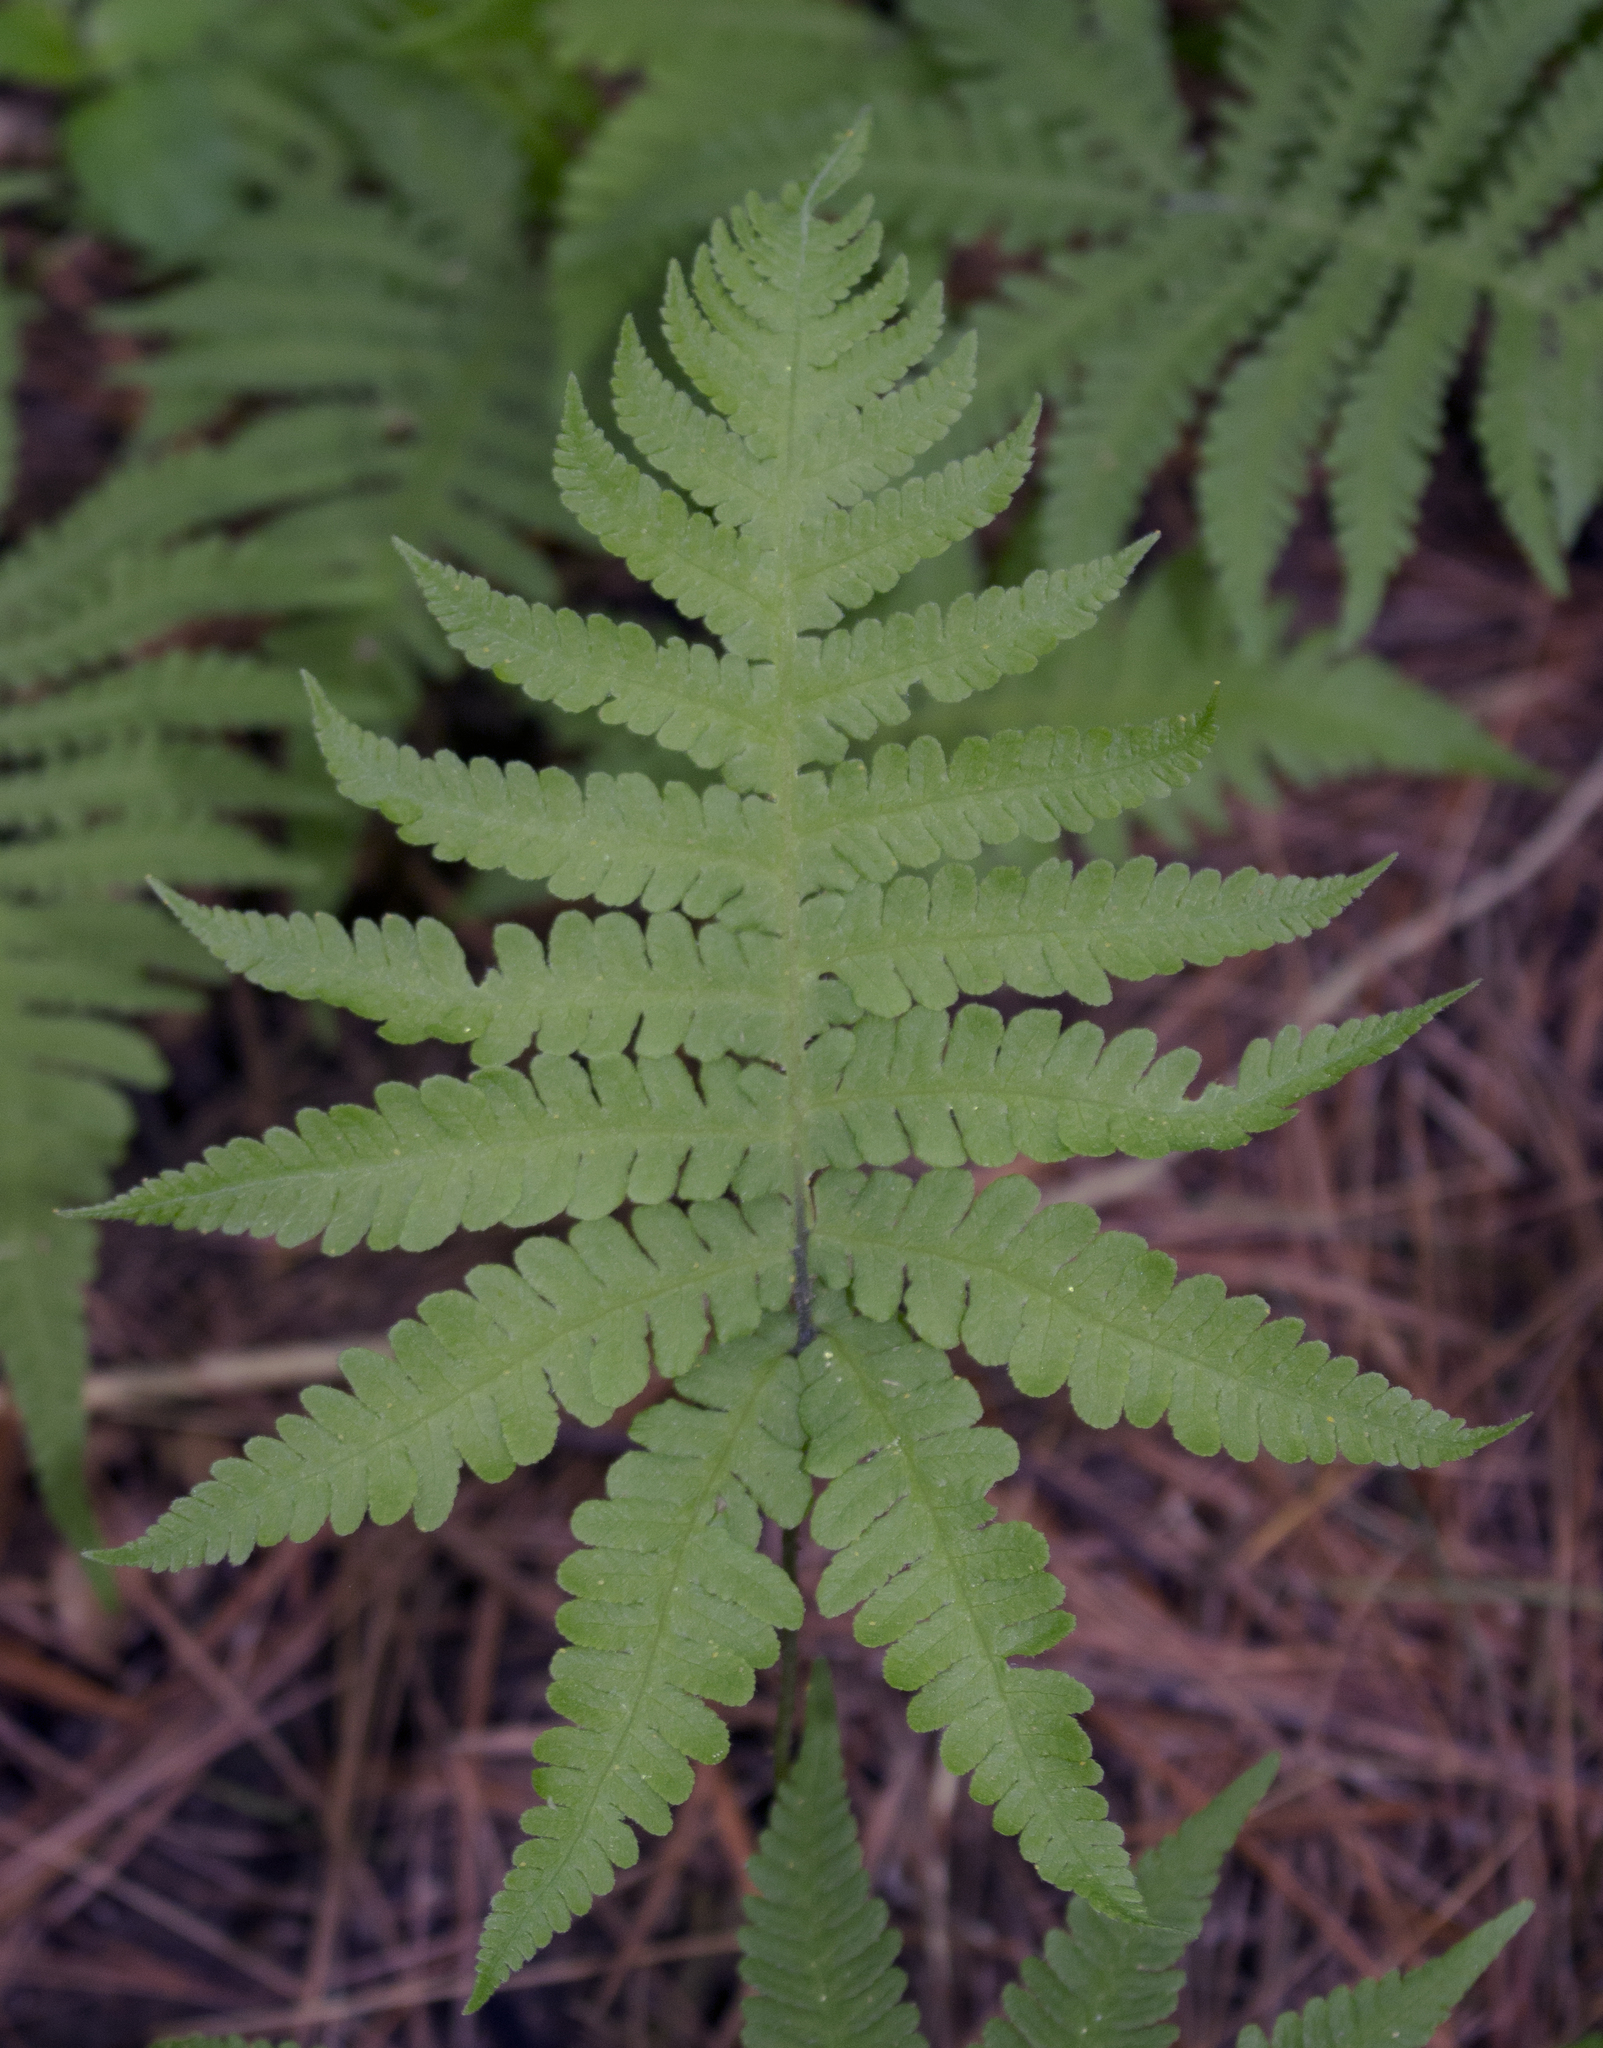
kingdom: Plantae
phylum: Tracheophyta
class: Polypodiopsida
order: Polypodiales
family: Thelypteridaceae
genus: Phegopteris
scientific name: Phegopteris connectilis
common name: Beech fern
